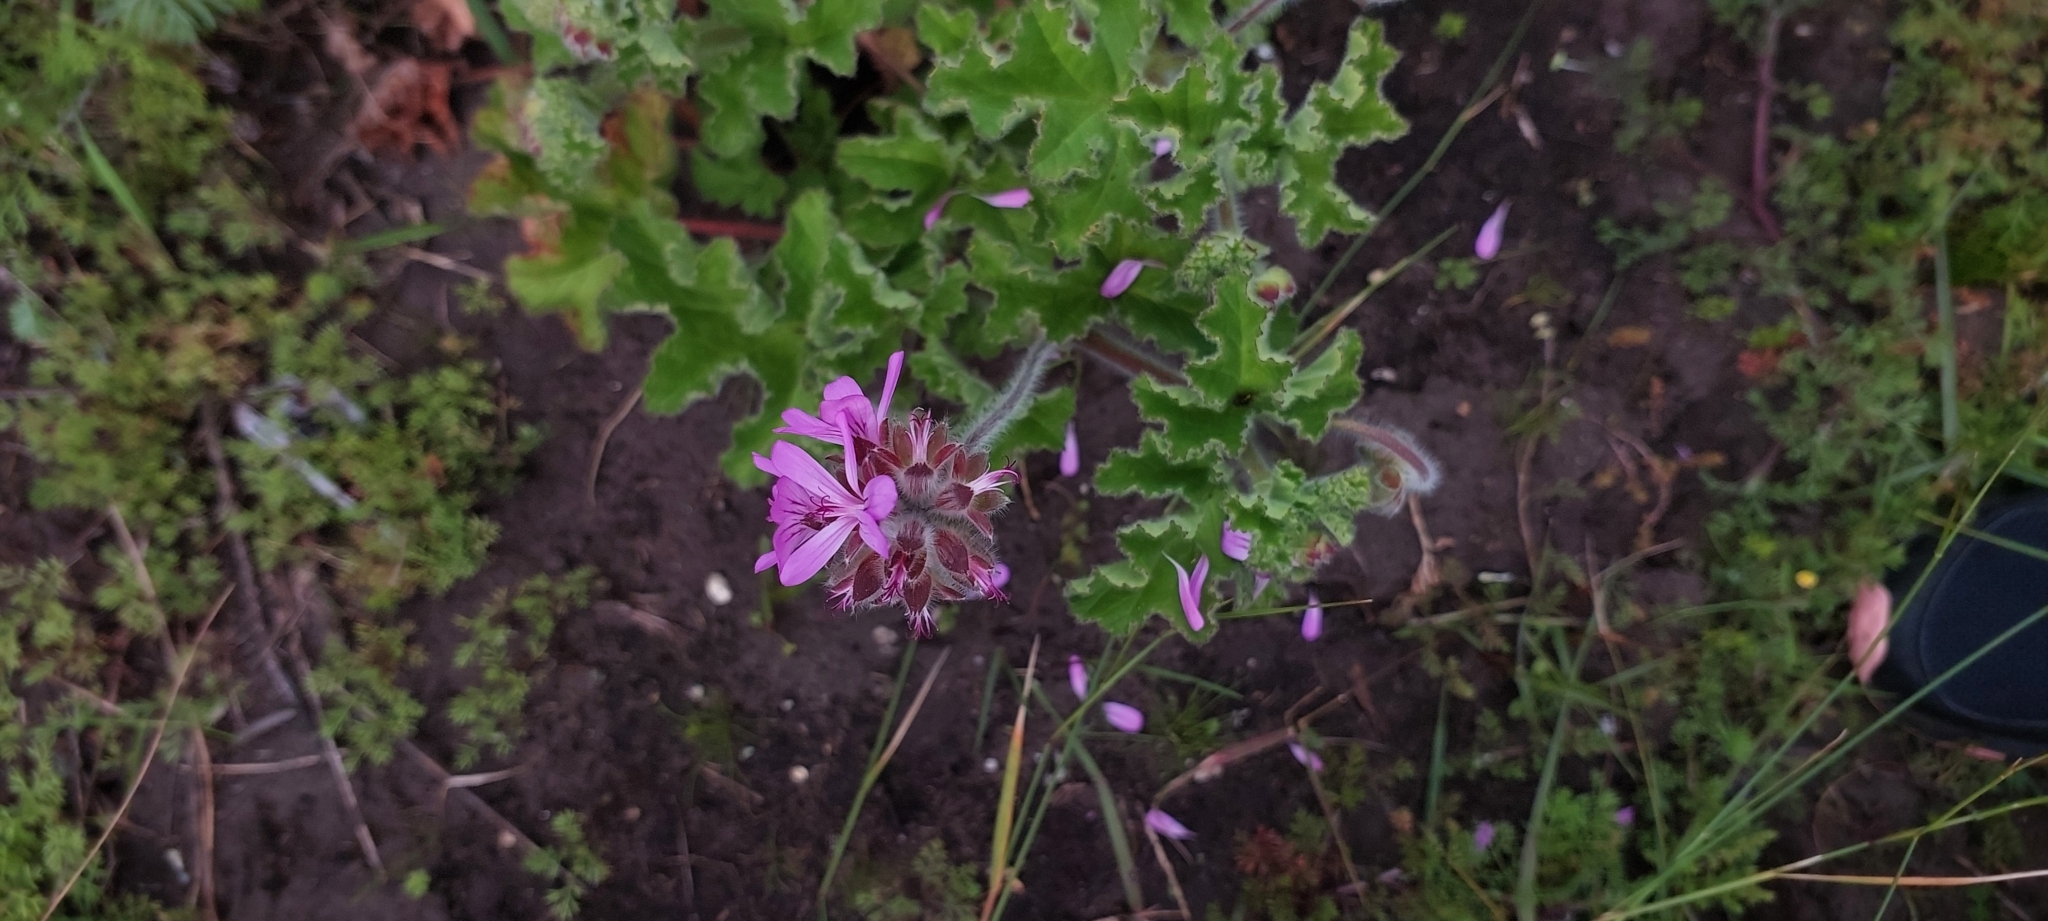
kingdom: Plantae
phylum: Tracheophyta
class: Magnoliopsida
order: Geraniales
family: Geraniaceae
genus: Pelargonium
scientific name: Pelargonium capitatum
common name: Rose scented geranium
